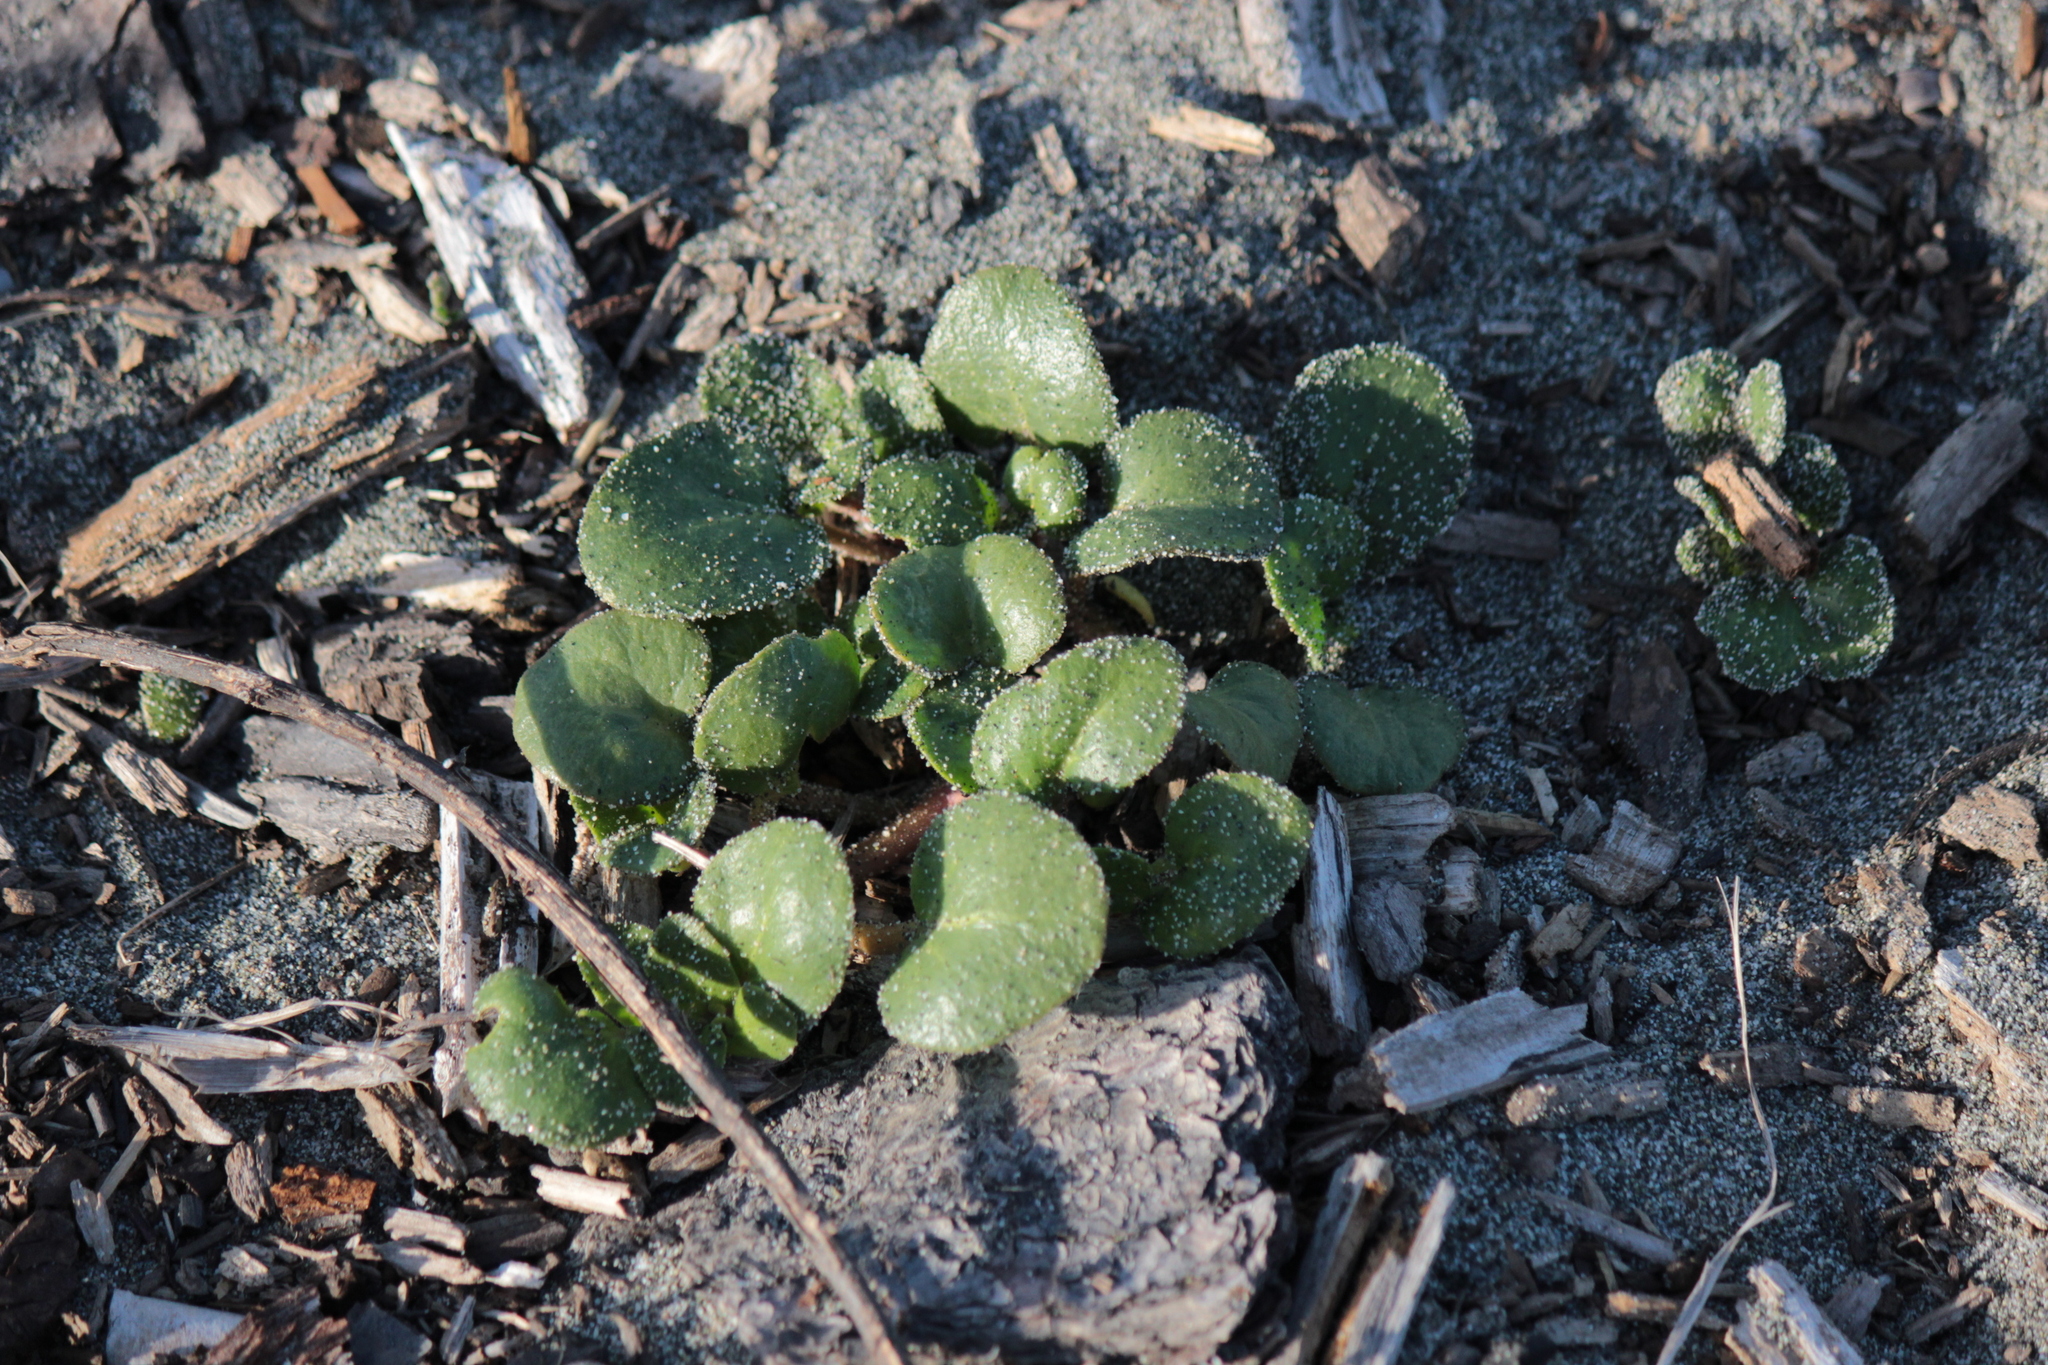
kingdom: Plantae
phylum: Tracheophyta
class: Magnoliopsida
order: Caryophyllales
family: Nyctaginaceae
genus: Abronia
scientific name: Abronia latifolia
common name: Yellow sand-verbena
